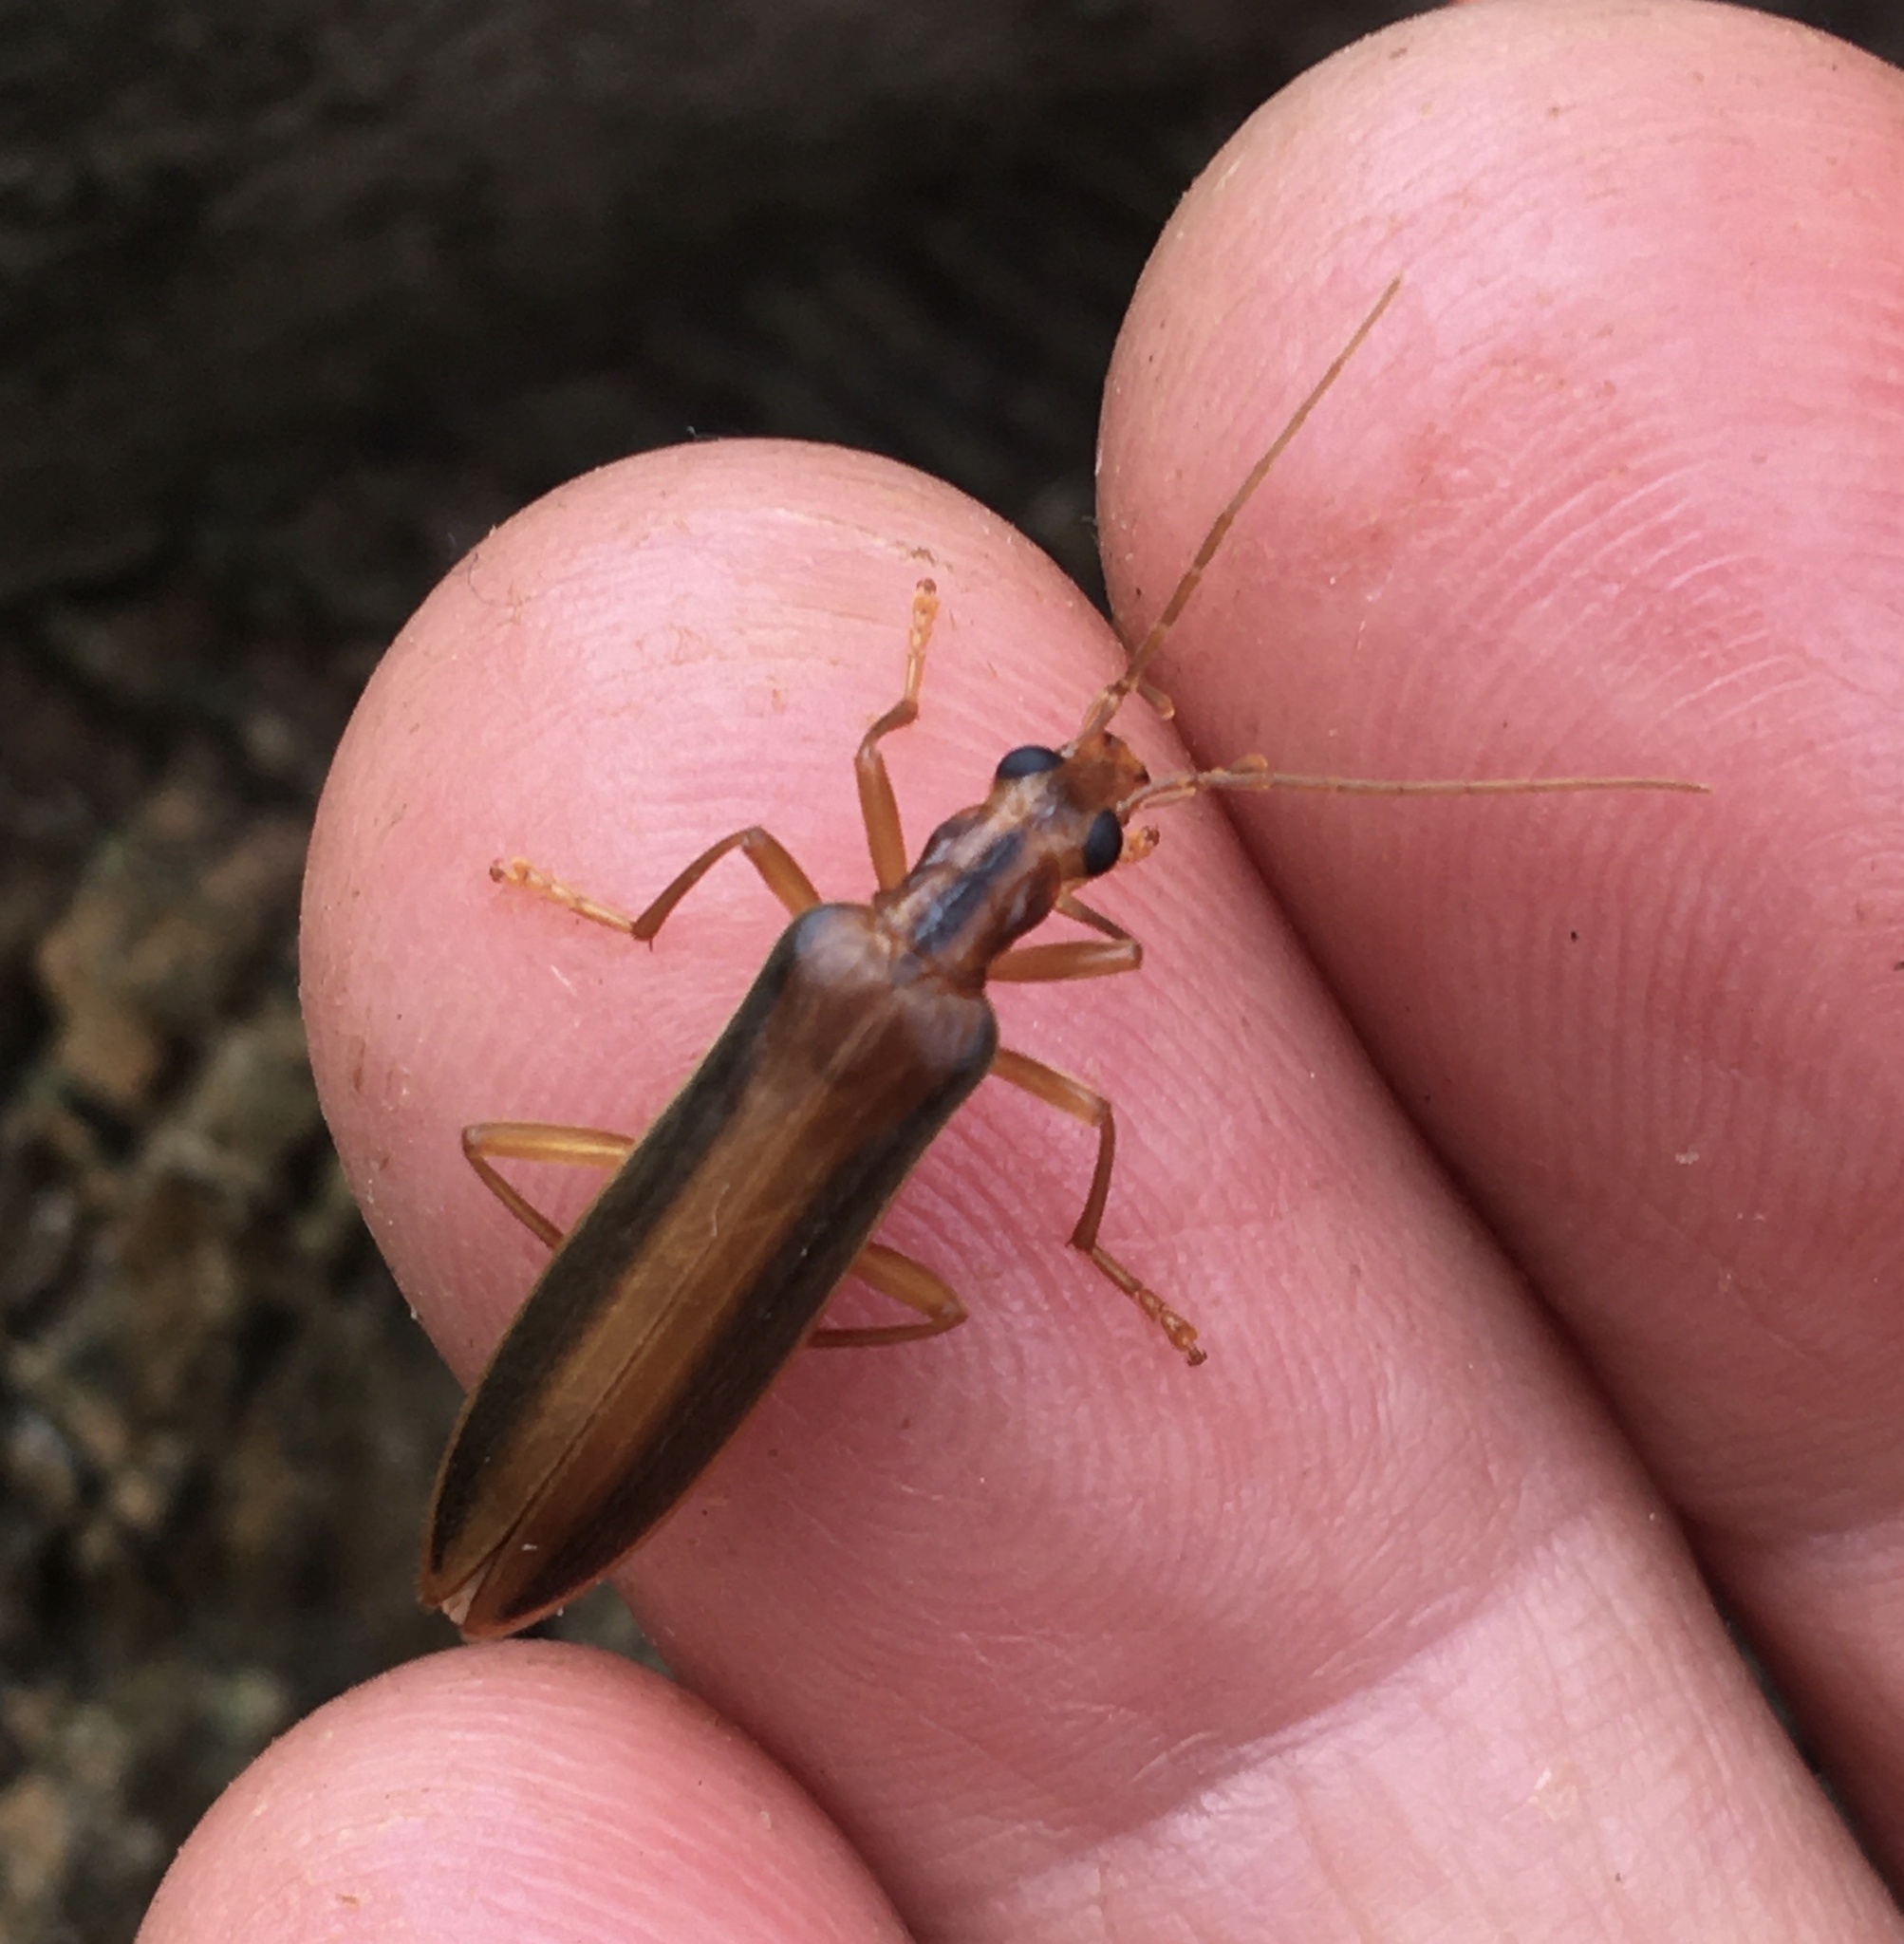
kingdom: Animalia
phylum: Arthropoda
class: Insecta
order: Coleoptera
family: Oedemeridae
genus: Thelyphassa
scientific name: Thelyphassa
